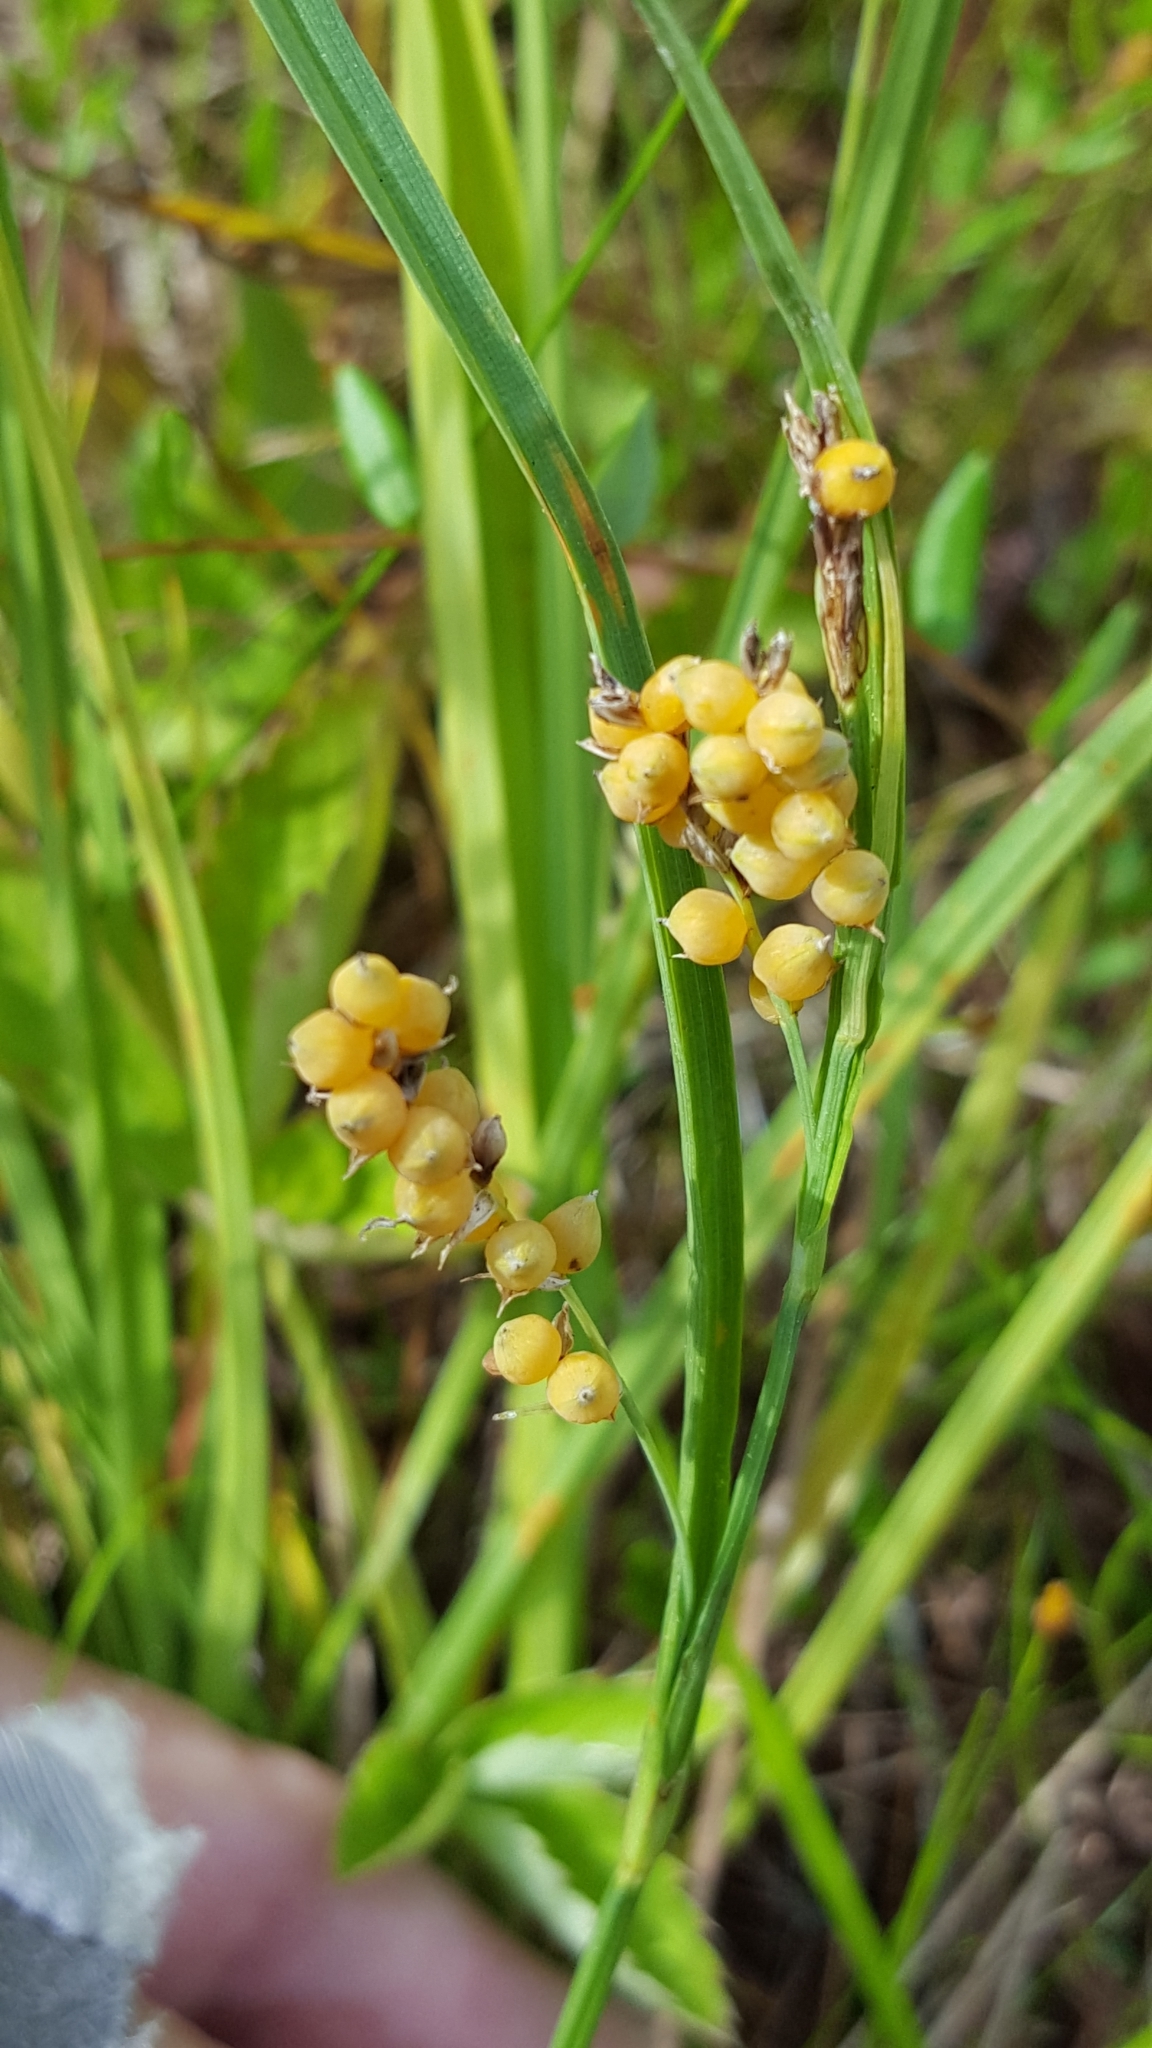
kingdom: Plantae
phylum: Tracheophyta
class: Liliopsida
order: Poales
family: Cyperaceae
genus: Carex
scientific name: Carex aurea
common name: Golden sedge
